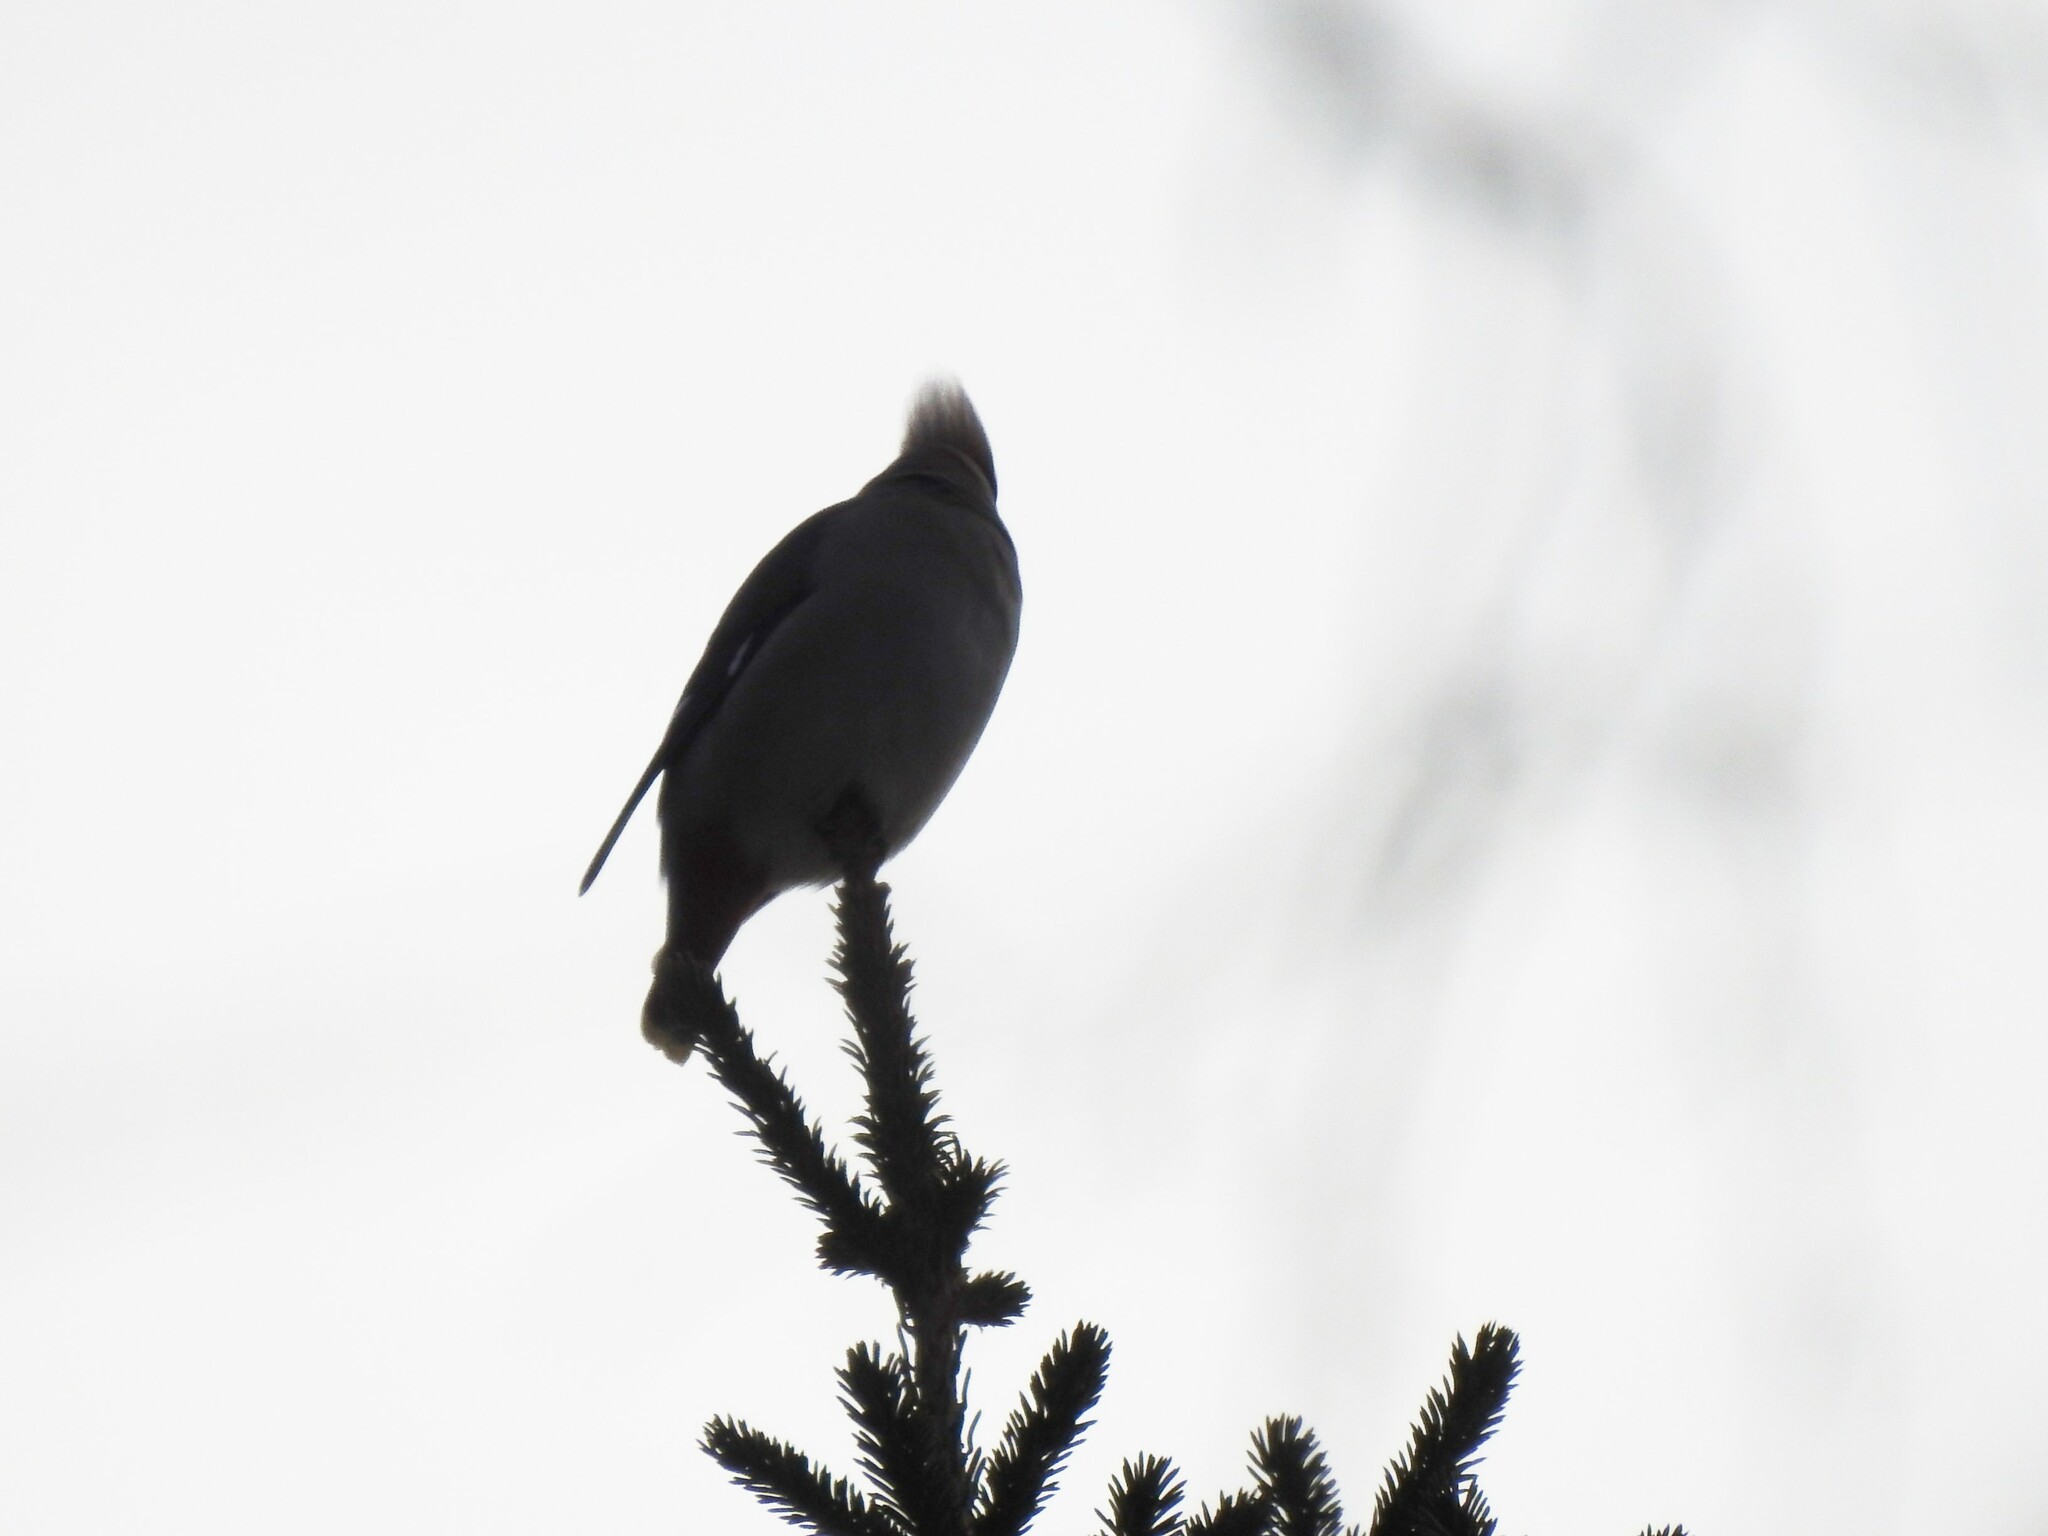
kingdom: Animalia
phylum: Chordata
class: Aves
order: Passeriformes
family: Bombycillidae
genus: Bombycilla
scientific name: Bombycilla garrulus
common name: Bohemian waxwing
